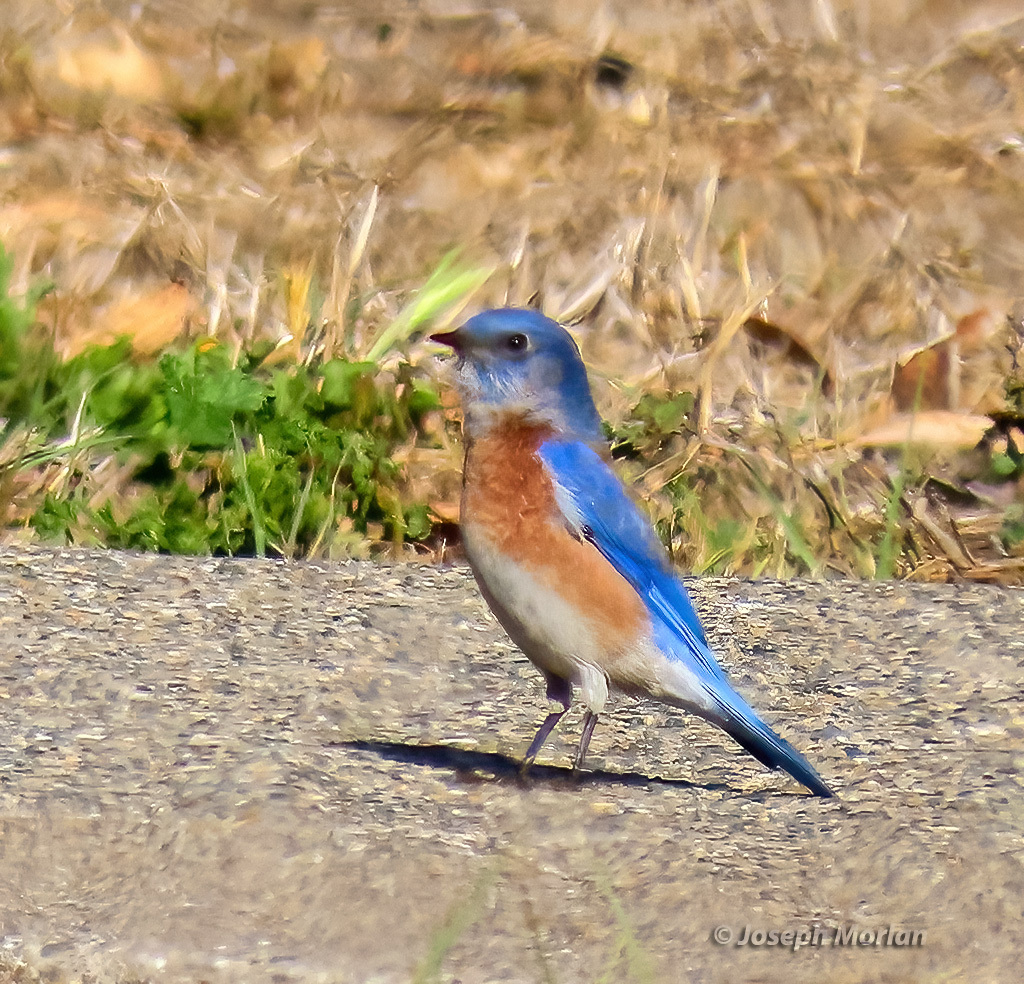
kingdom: Animalia
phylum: Chordata
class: Aves
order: Passeriformes
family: Turdidae
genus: Sialia
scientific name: Sialia mexicana
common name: Western bluebird
